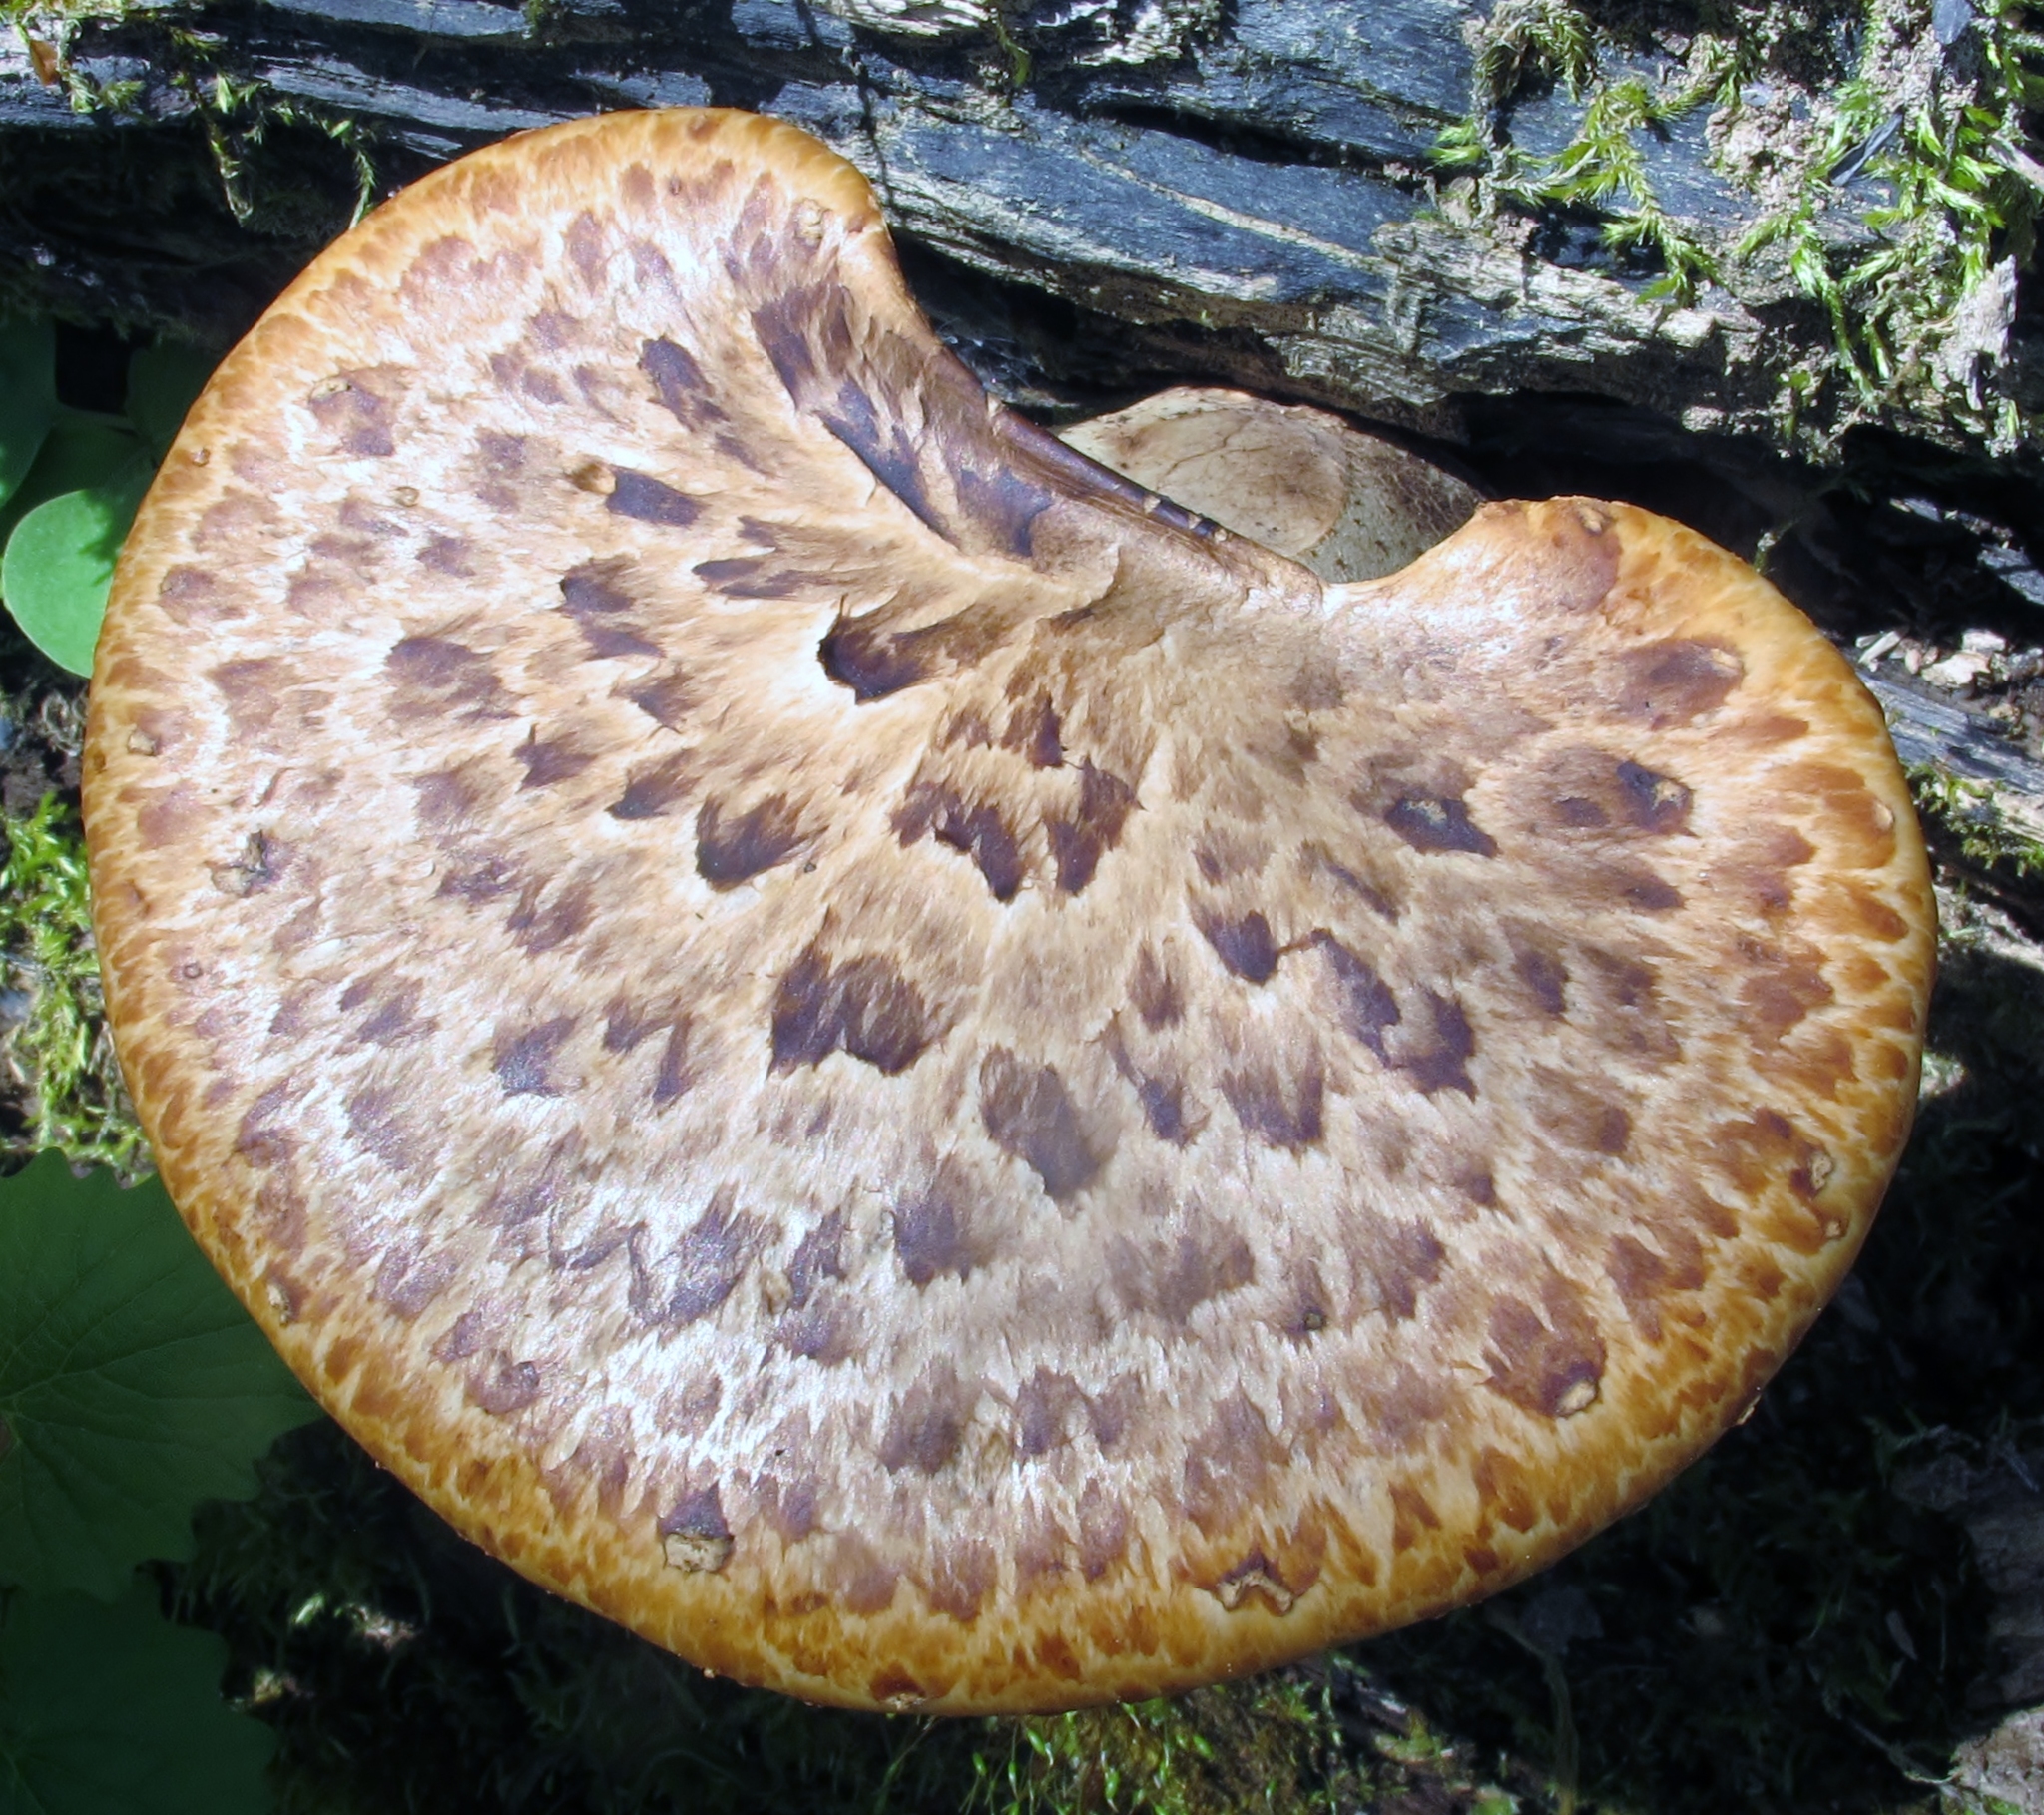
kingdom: Fungi
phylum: Basidiomycota
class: Agaricomycetes
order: Polyporales
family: Polyporaceae
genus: Cerioporus
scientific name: Cerioporus squamosus
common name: Dryad's saddle
